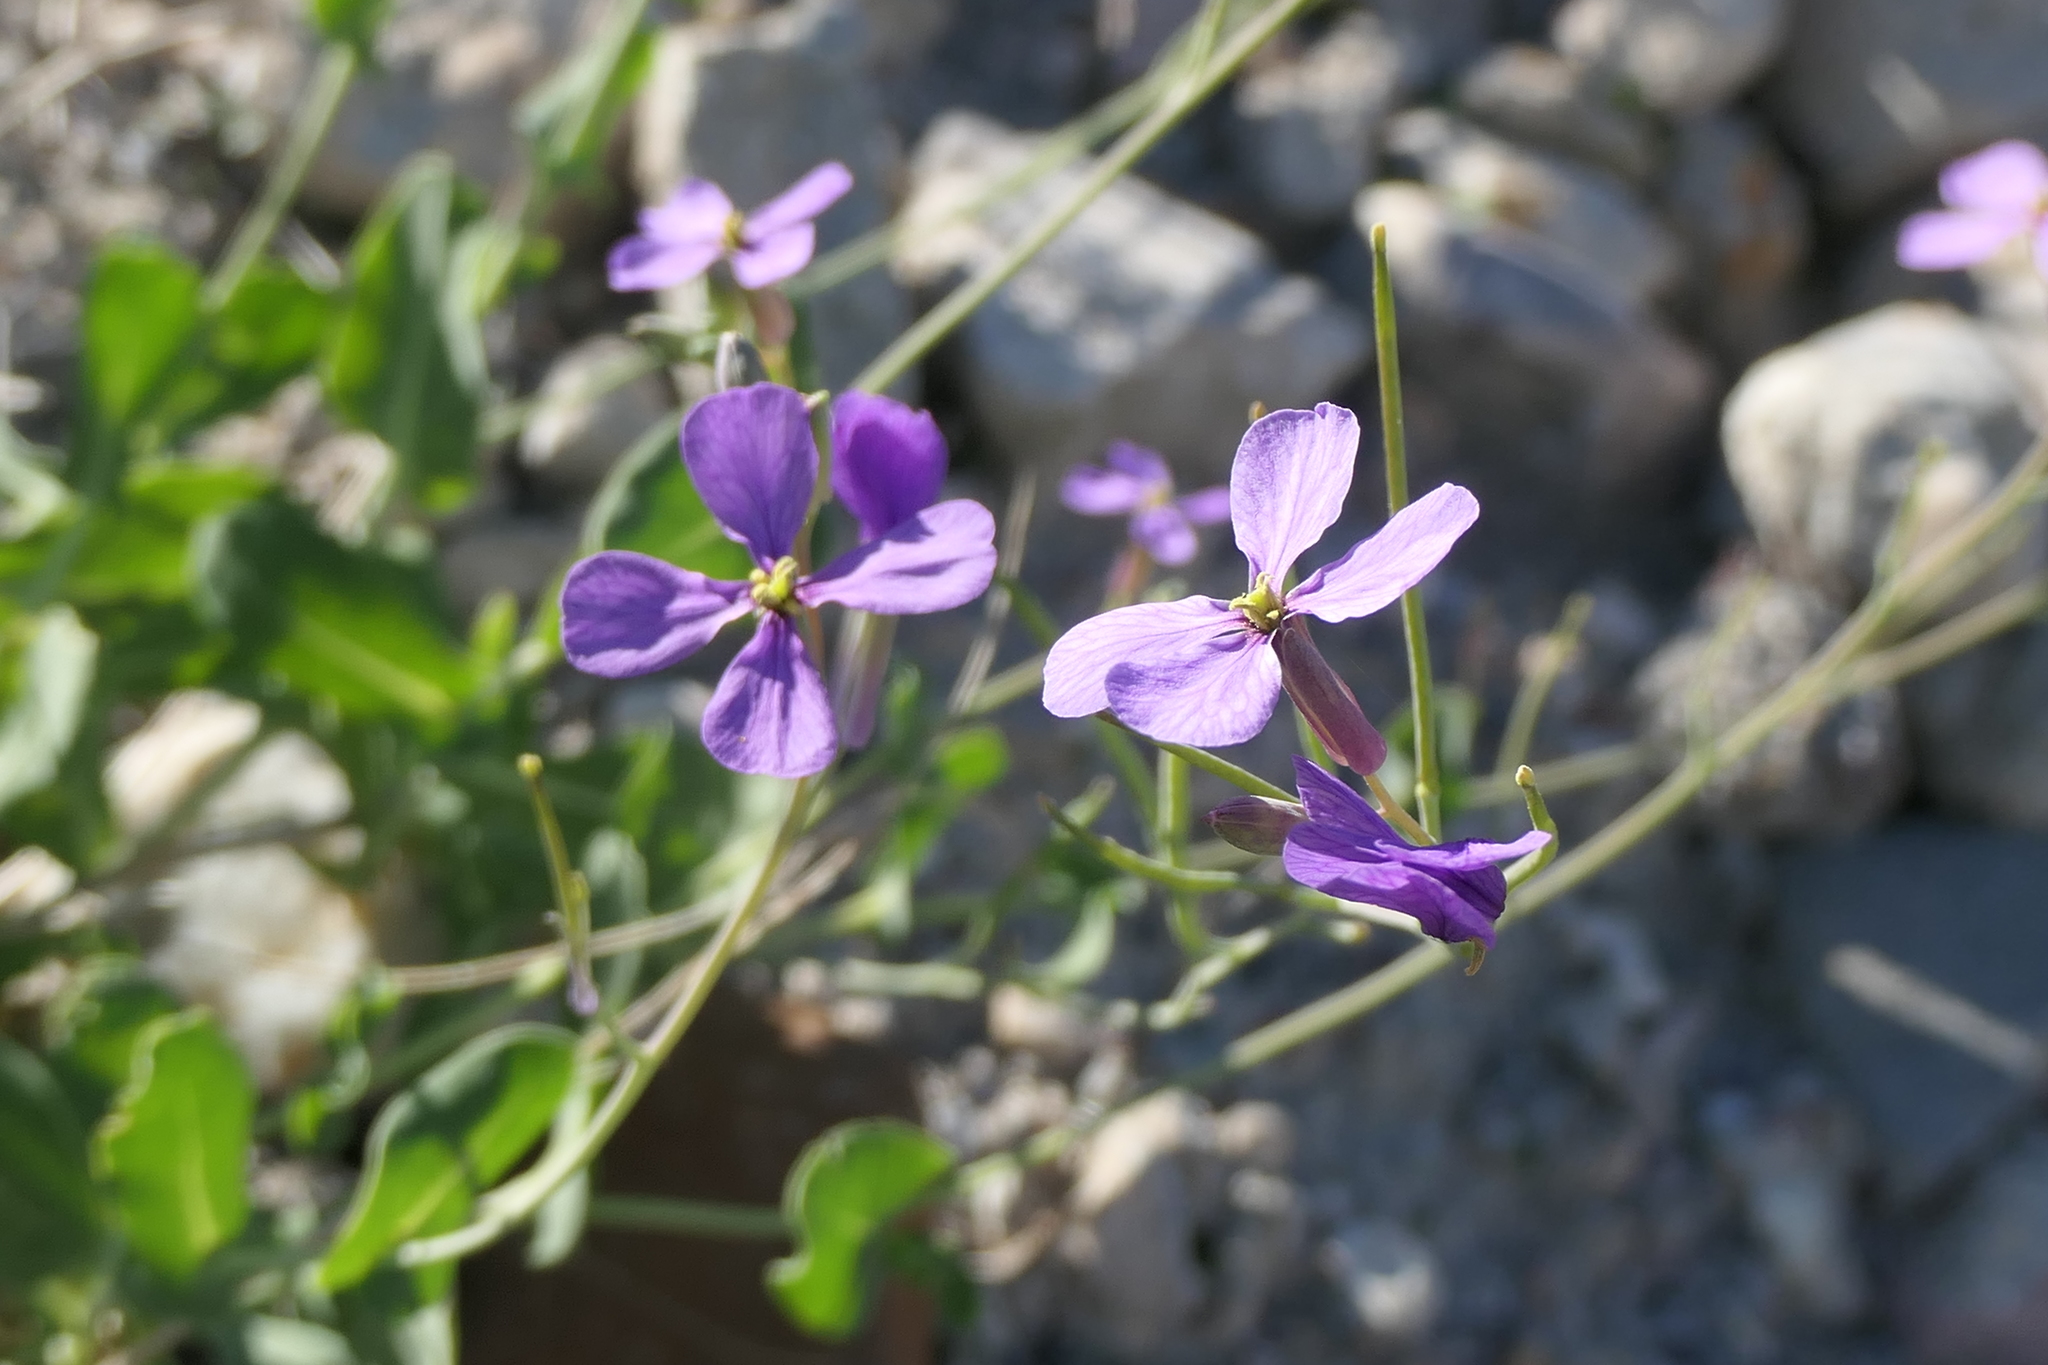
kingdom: Plantae
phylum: Tracheophyta
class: Magnoliopsida
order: Brassicales
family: Brassicaceae
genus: Moricandia
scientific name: Moricandia arvensis
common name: Purple mistress
